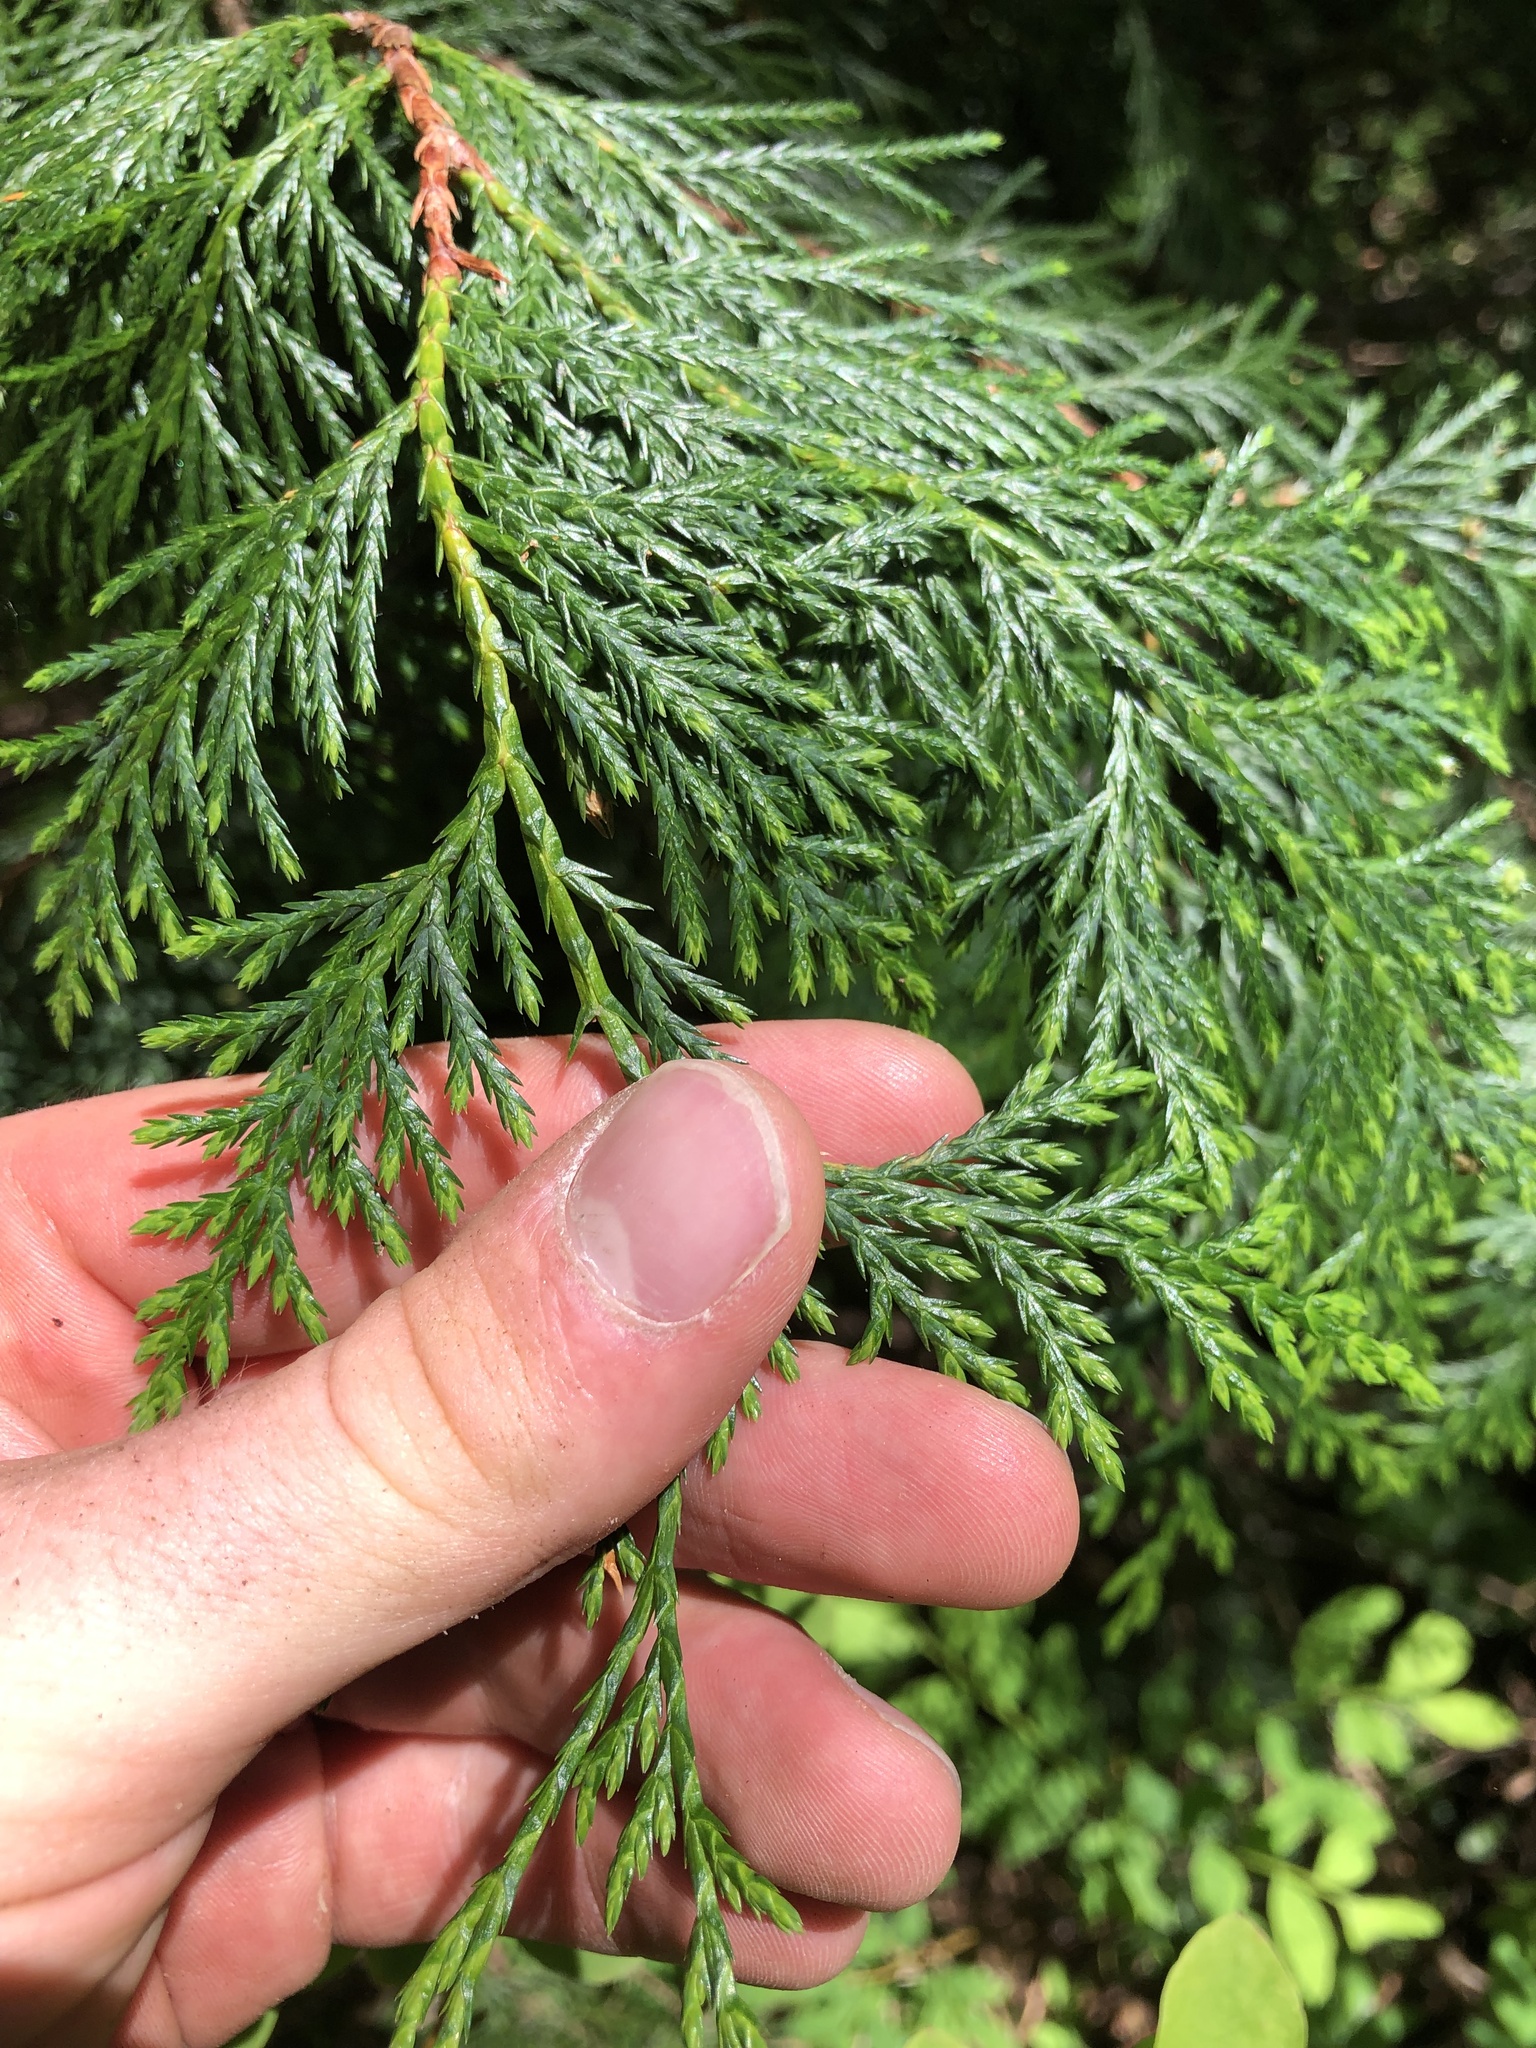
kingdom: Plantae
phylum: Tracheophyta
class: Pinopsida
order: Pinales
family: Cupressaceae
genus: Xanthocyparis
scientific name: Xanthocyparis nootkatensis
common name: Nootka cypress
